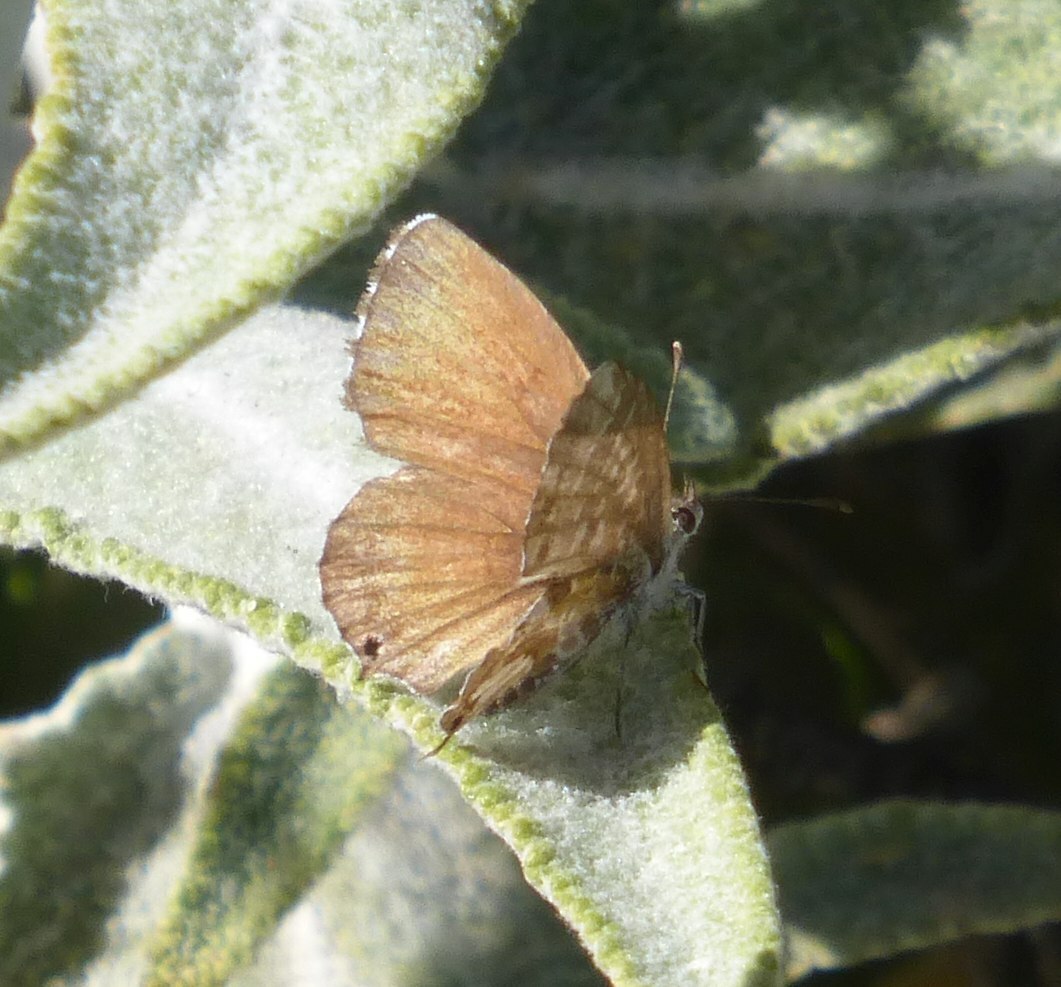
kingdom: Animalia
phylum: Arthropoda
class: Insecta
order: Lepidoptera
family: Lycaenidae
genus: Cacyreus
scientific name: Cacyreus marshalli
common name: Geranium bronze
